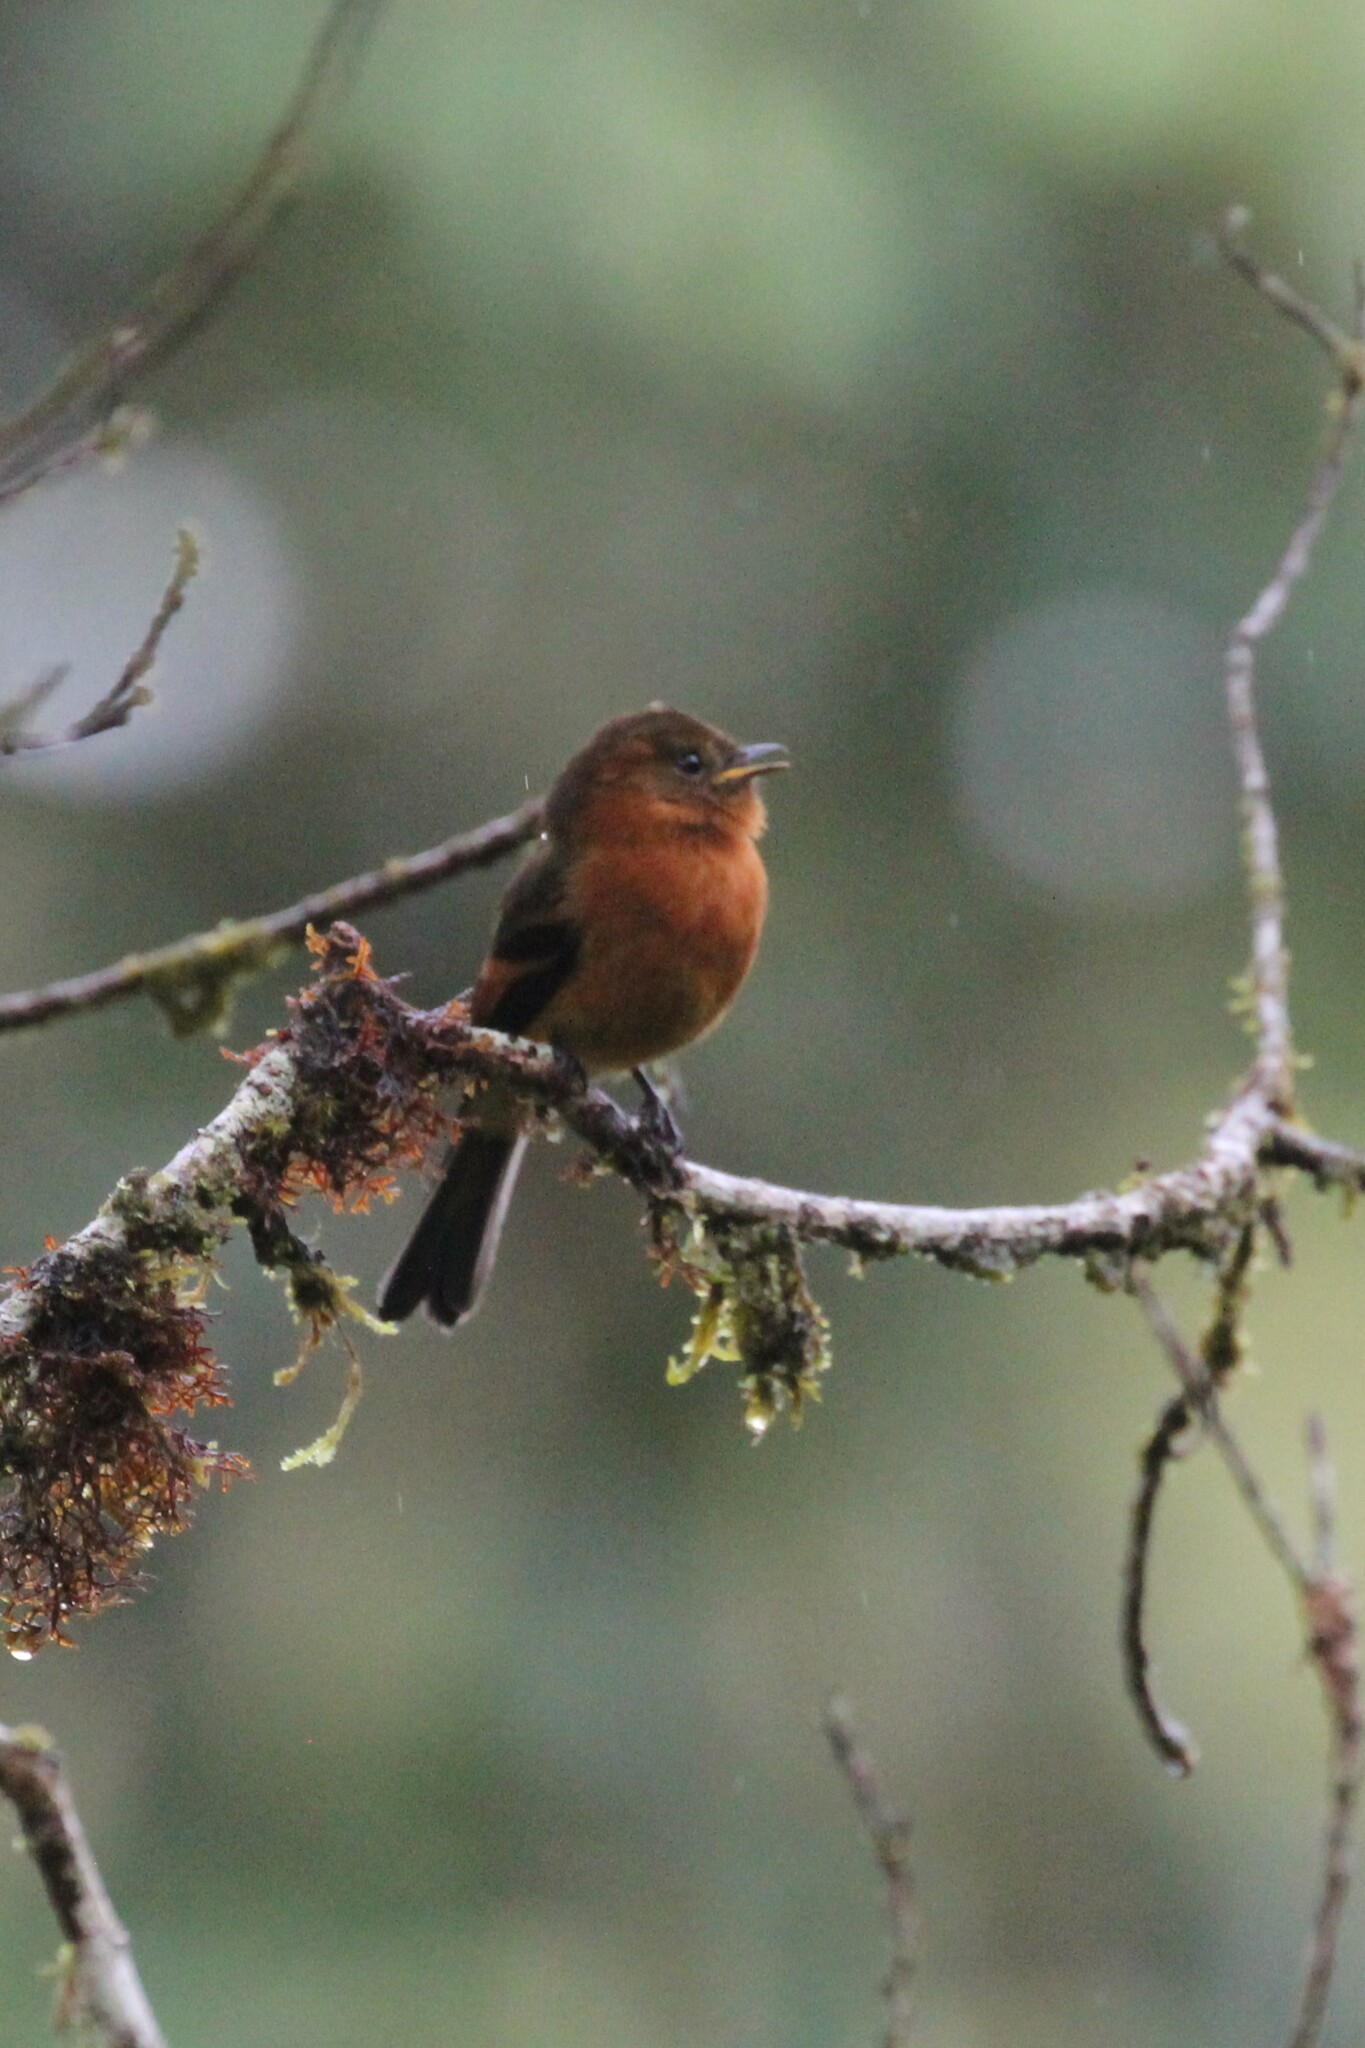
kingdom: Animalia
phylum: Chordata
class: Aves
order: Passeriformes
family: Tyrannidae
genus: Pyrrhomyias
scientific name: Pyrrhomyias cinnamomeus
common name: Cinnamon flycatcher
